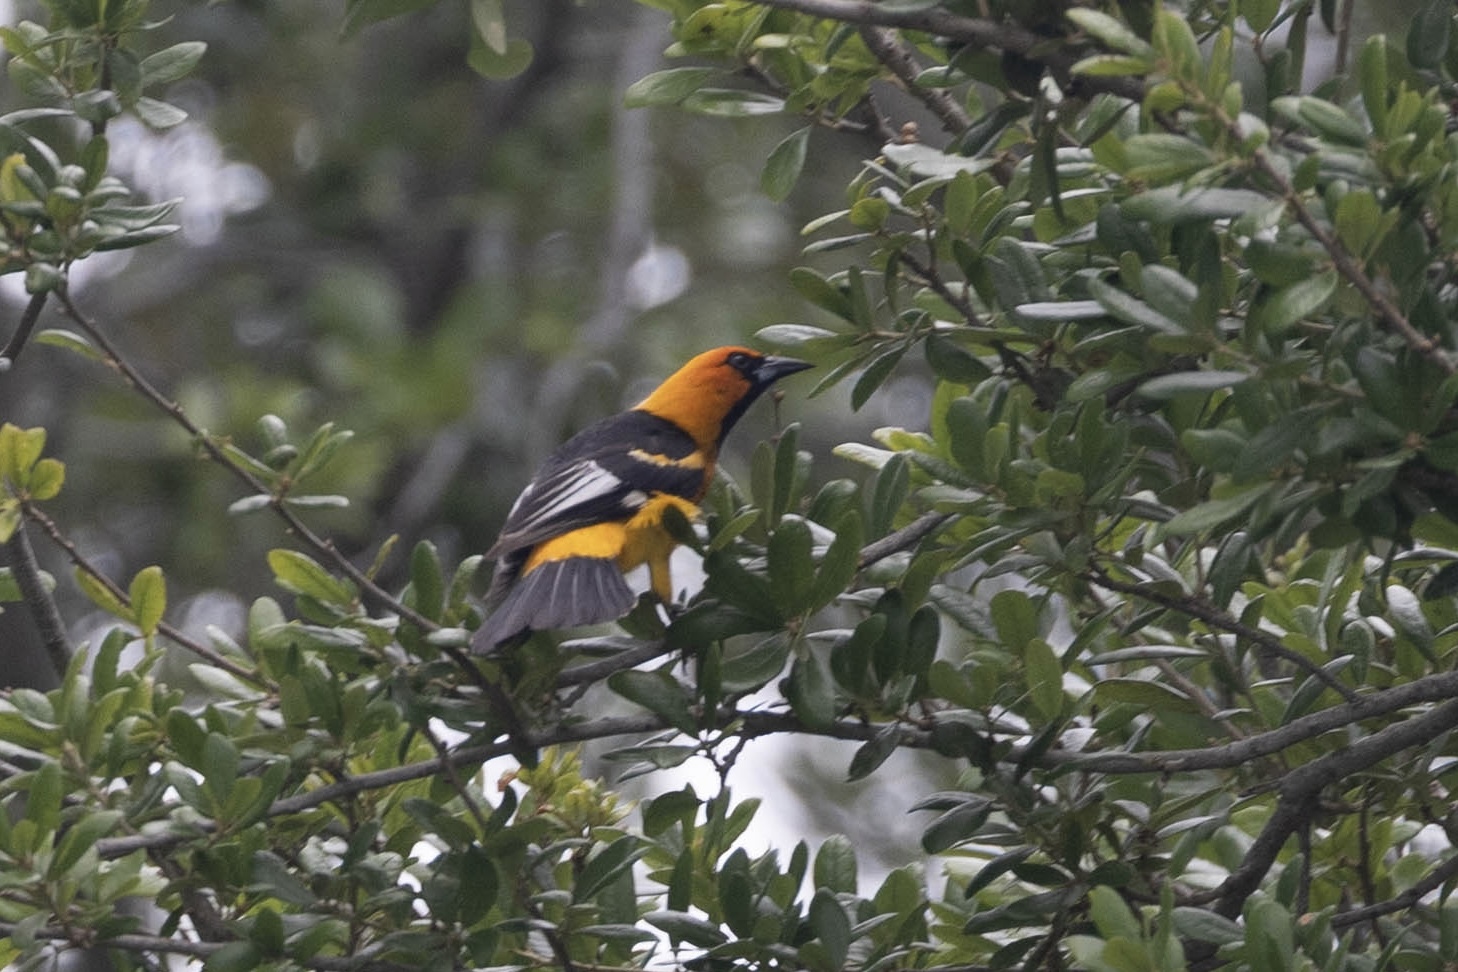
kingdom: Animalia
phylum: Chordata
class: Aves
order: Passeriformes
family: Icteridae
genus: Icterus
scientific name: Icterus pectoralis
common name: Spot-breasted oriole
